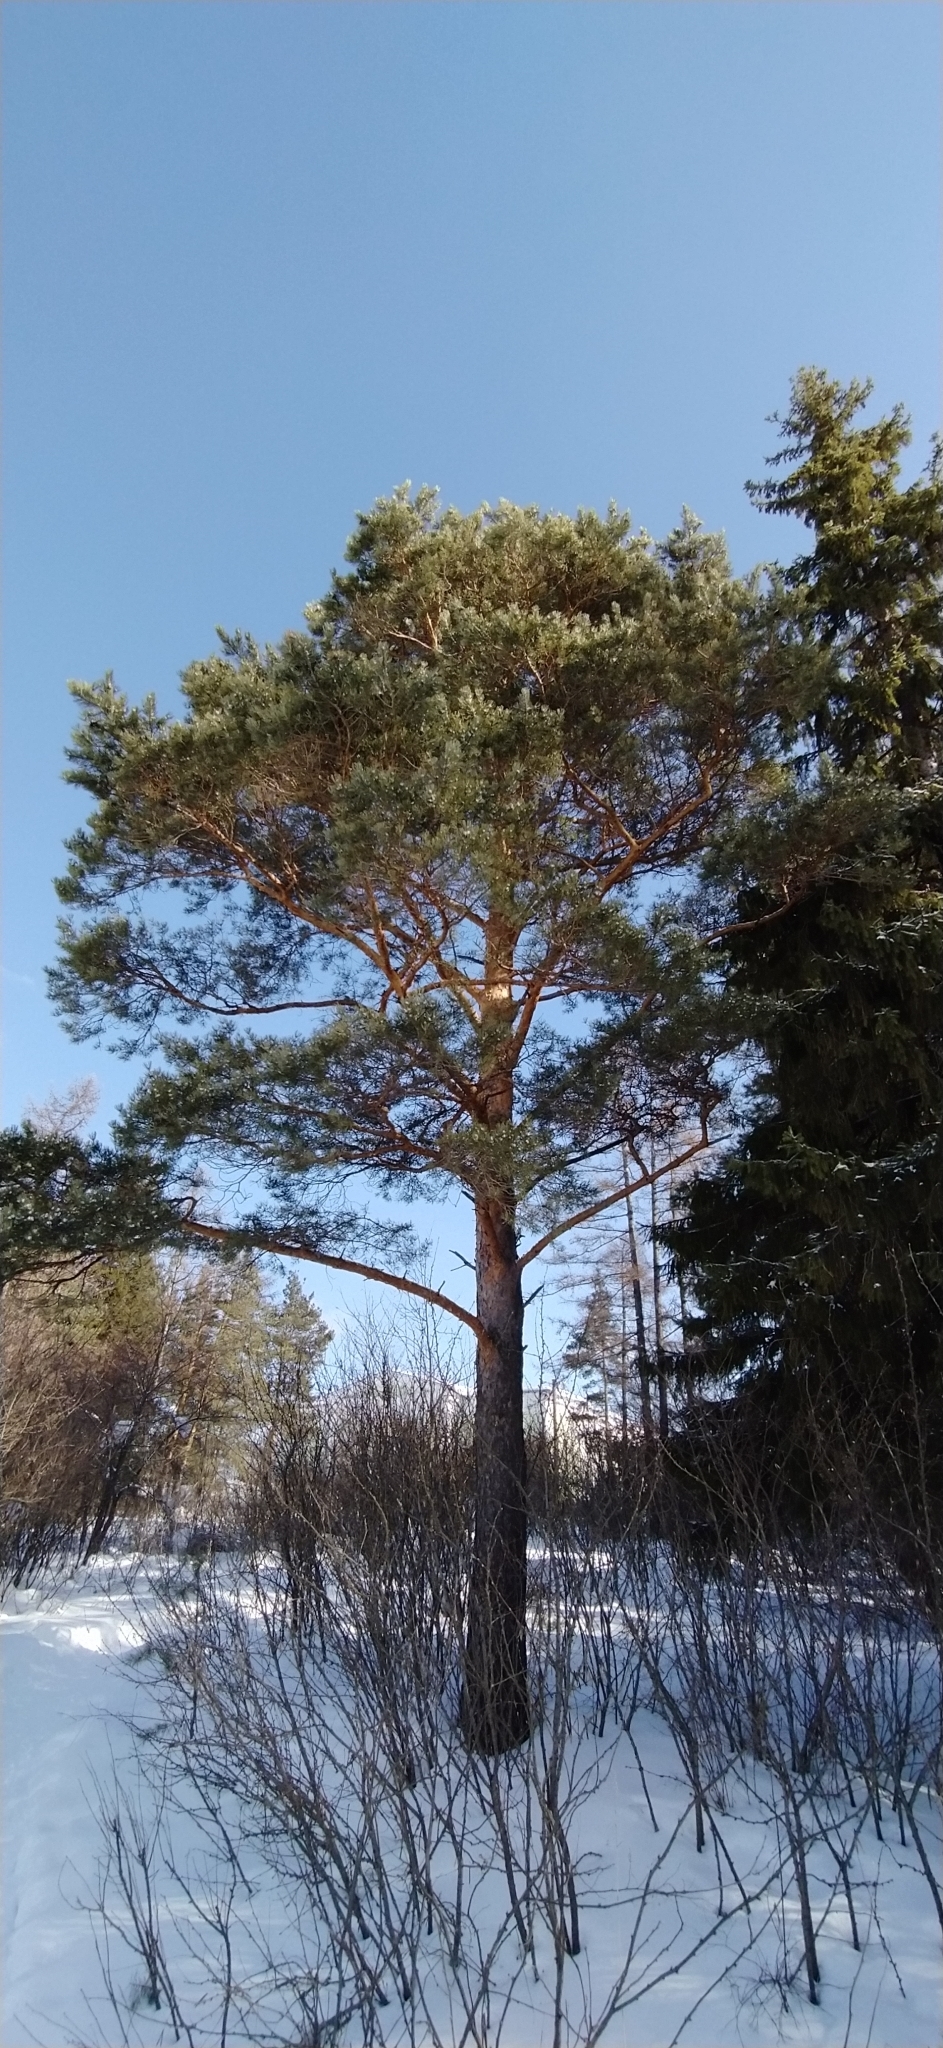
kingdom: Plantae
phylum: Tracheophyta
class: Pinopsida
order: Pinales
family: Pinaceae
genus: Pinus
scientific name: Pinus sylvestris
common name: Scots pine
